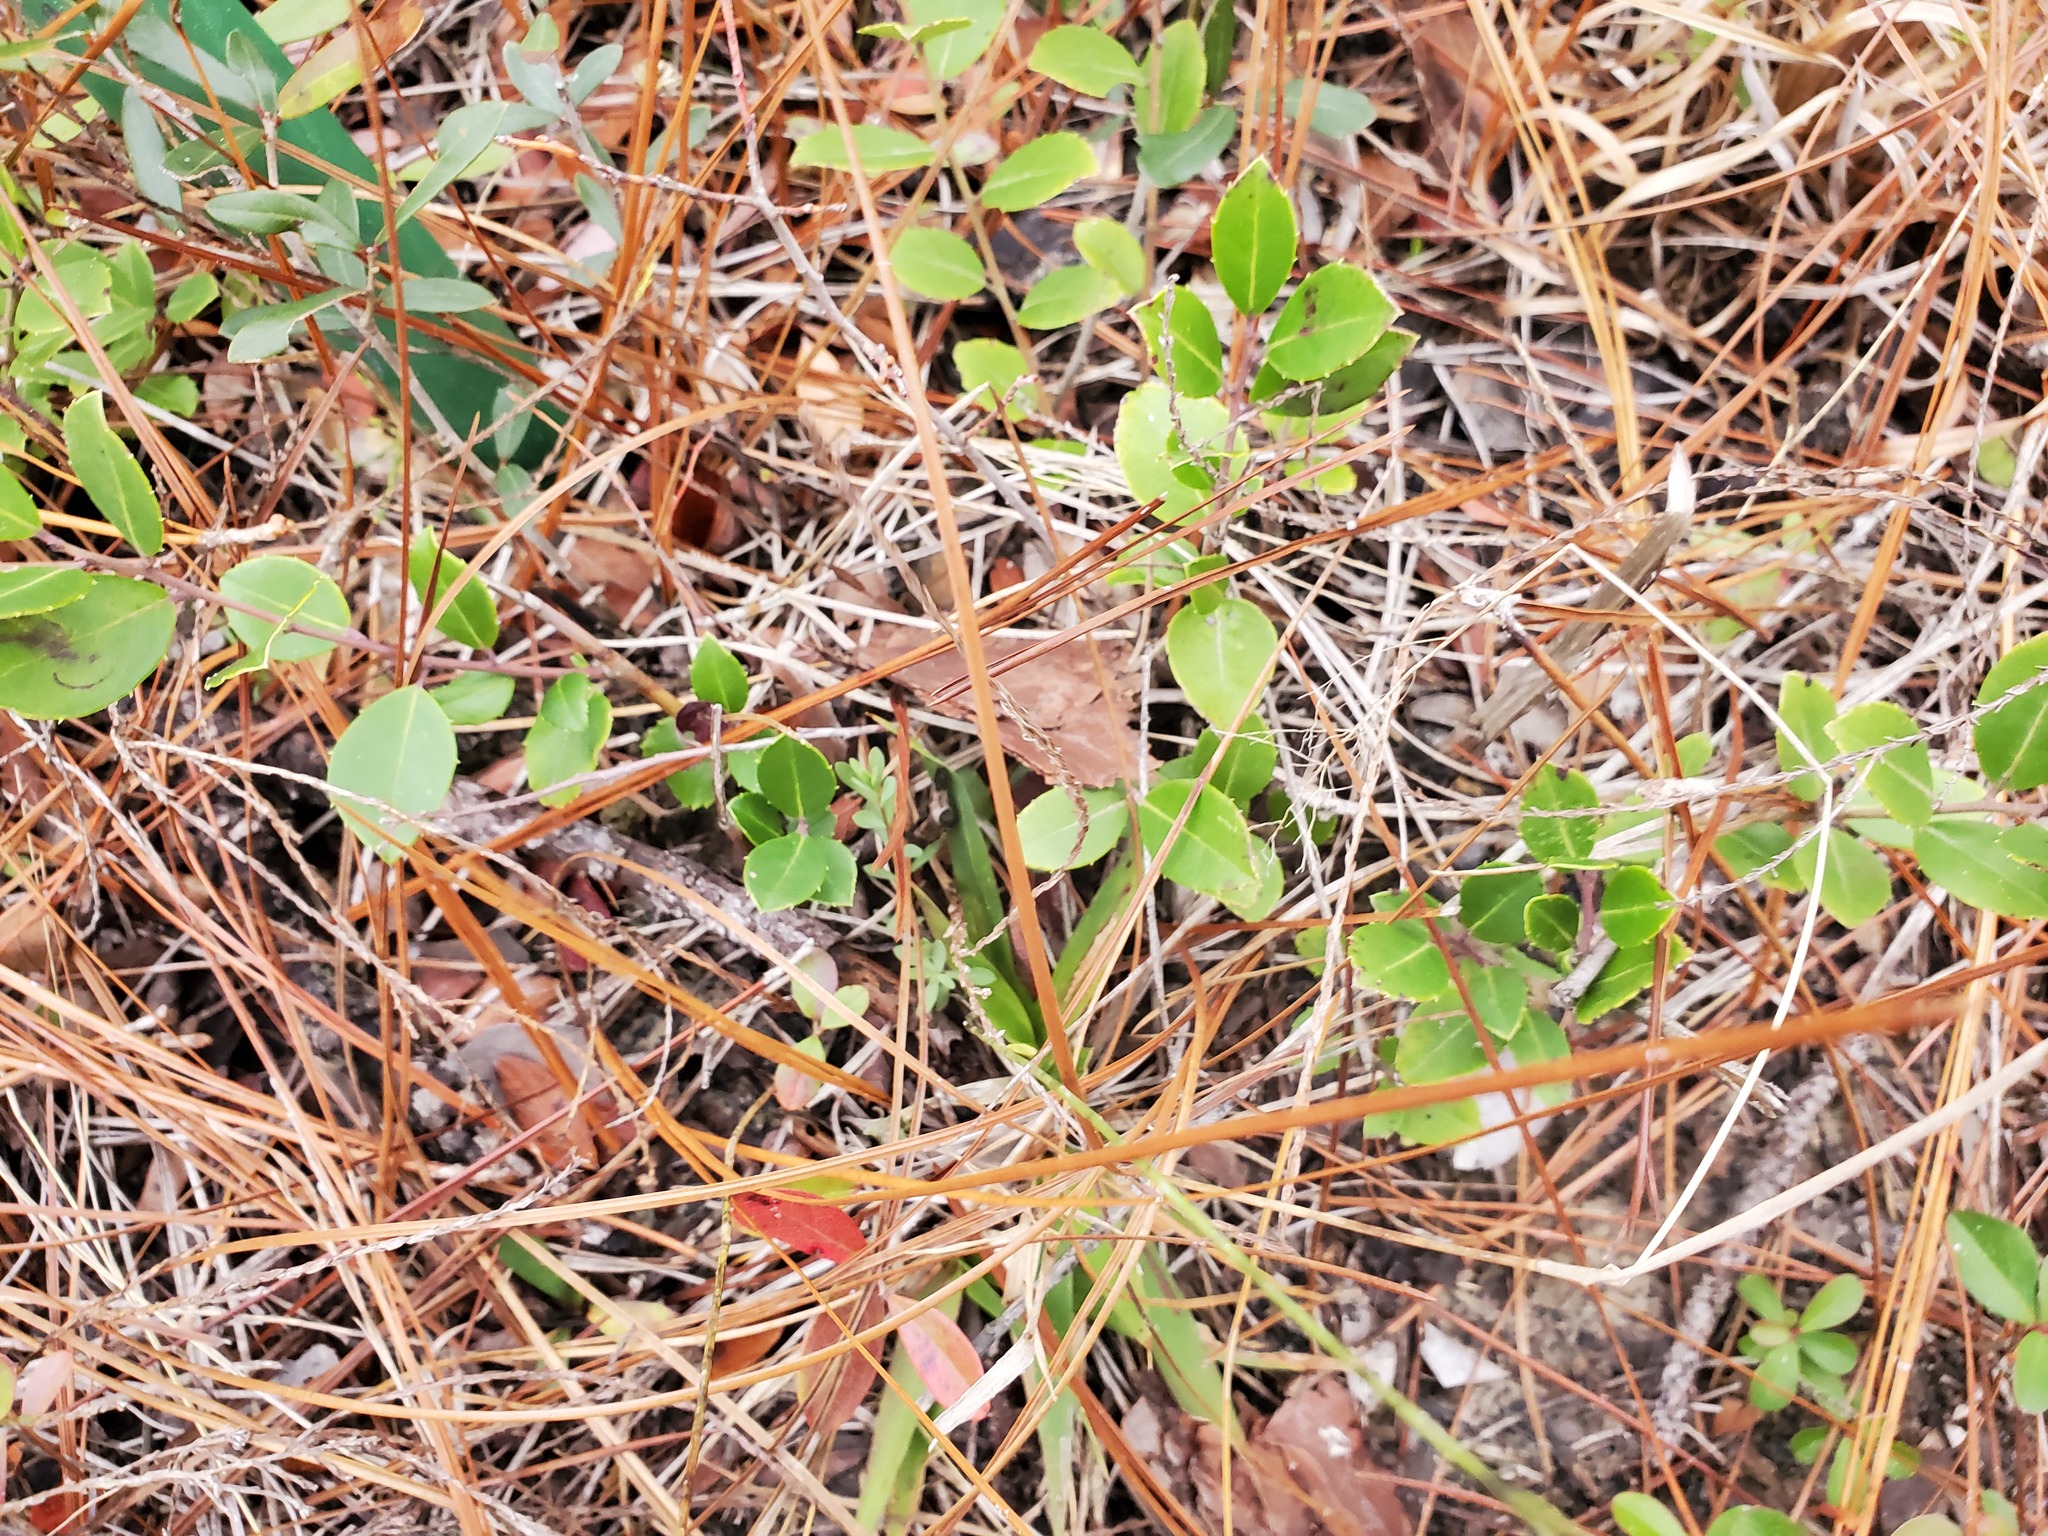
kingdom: Plantae
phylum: Tracheophyta
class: Magnoliopsida
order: Aquifoliales
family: Aquifoliaceae
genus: Ilex
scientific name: Ilex coriacea
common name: Sweet gallberry
